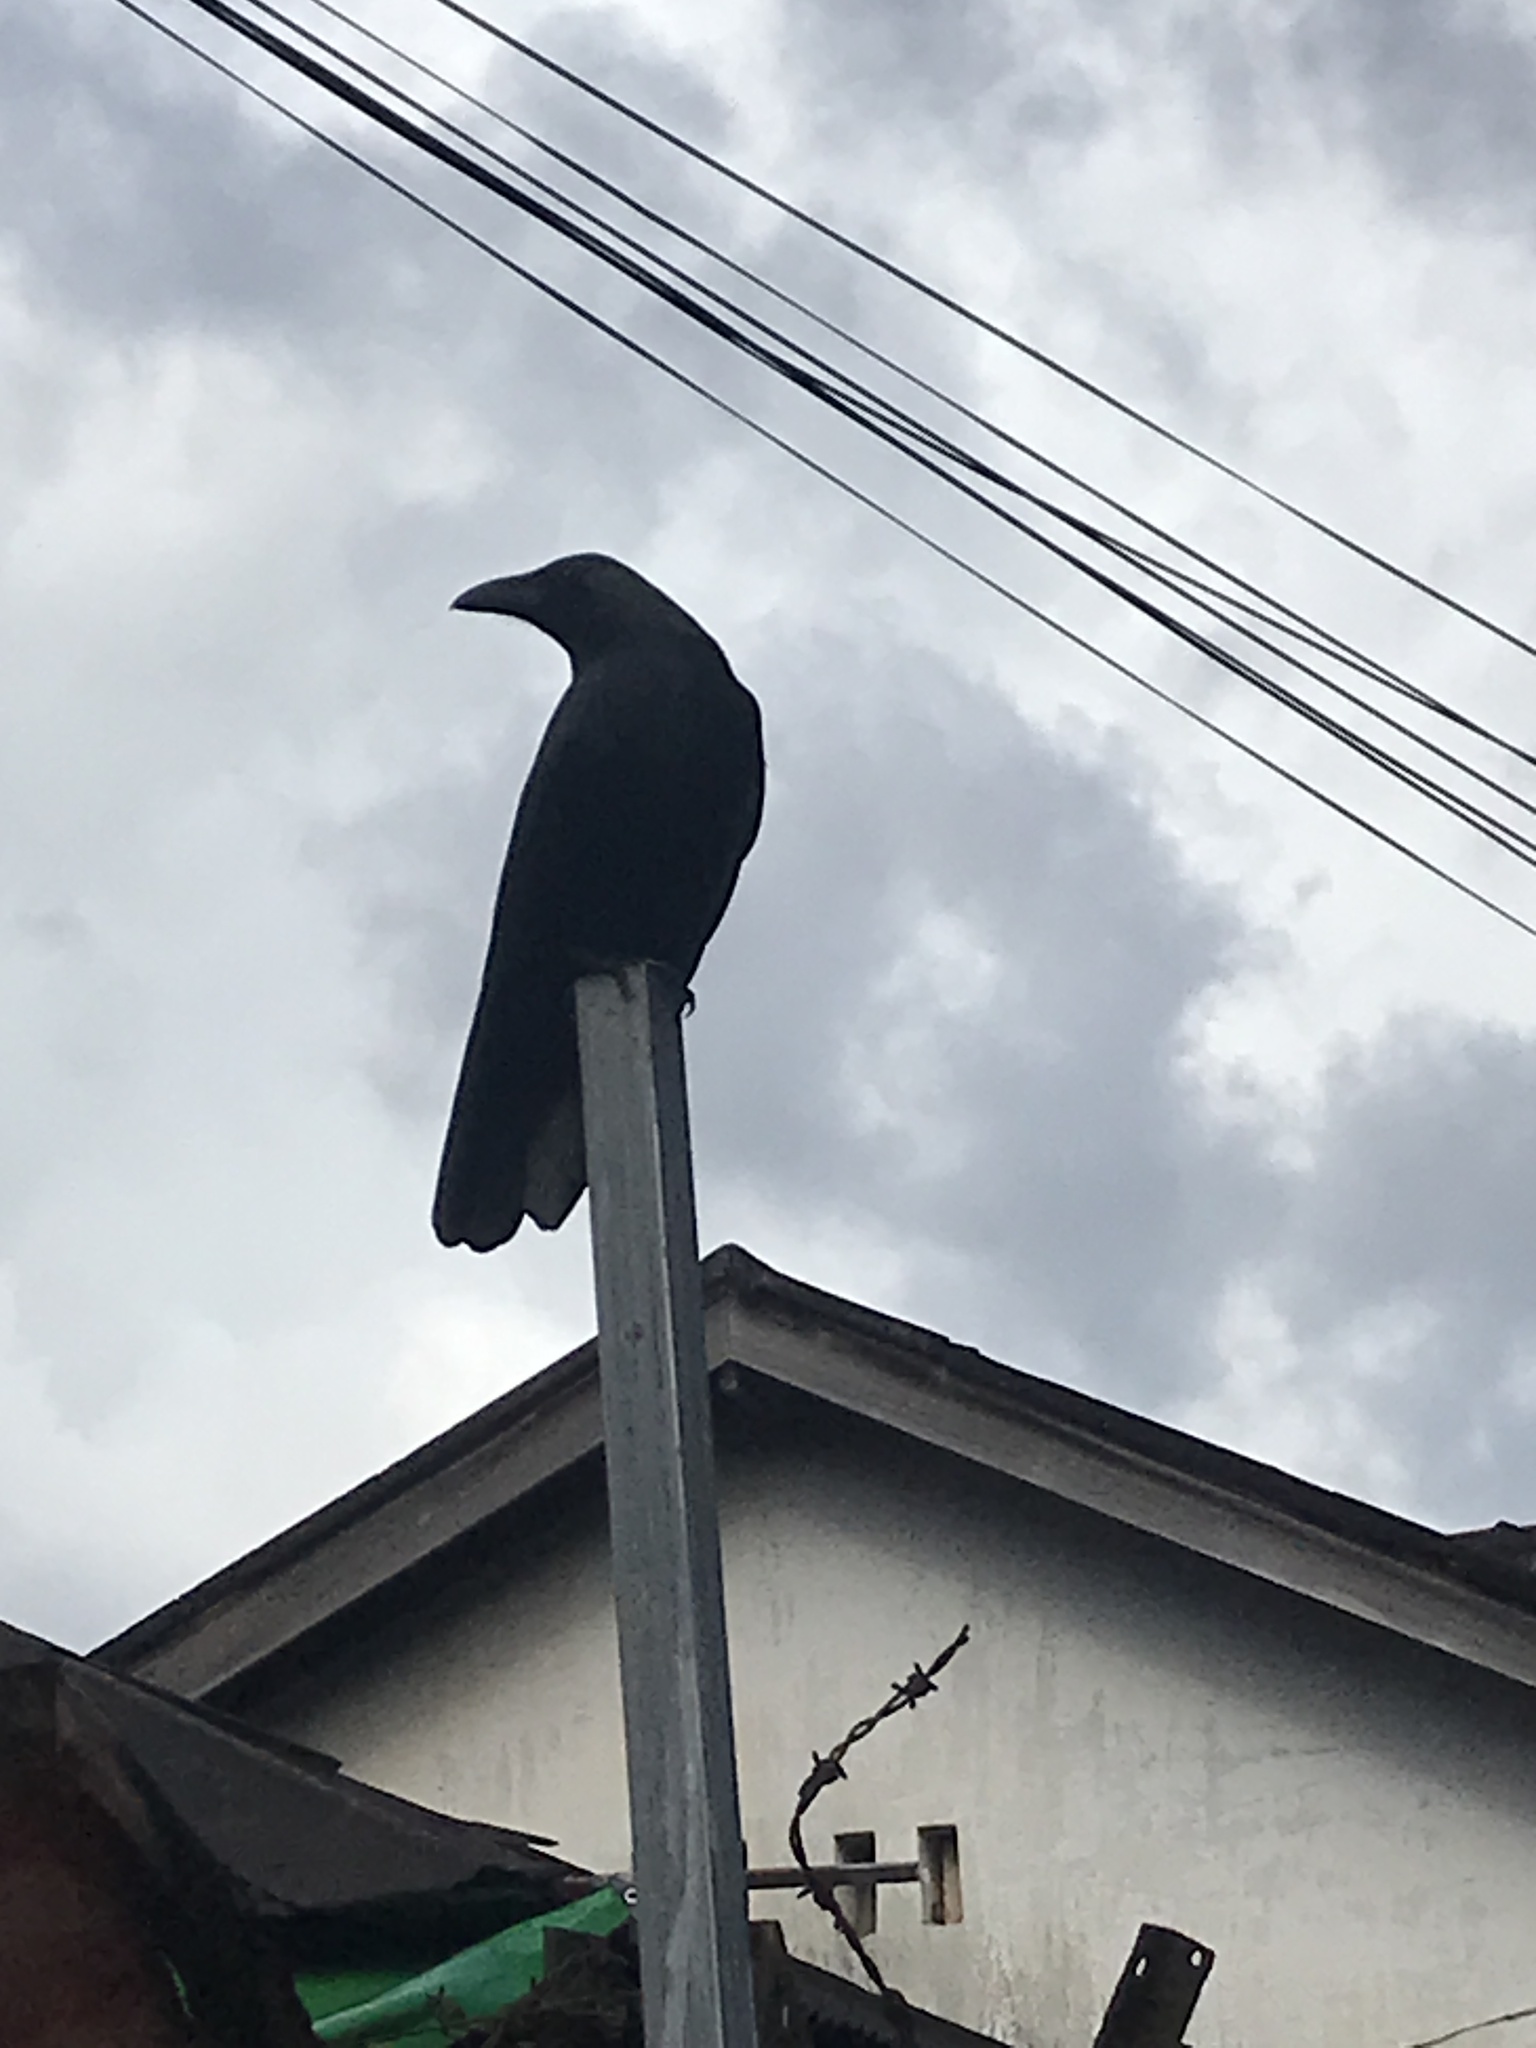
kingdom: Animalia
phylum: Chordata
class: Aves
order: Passeriformes
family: Corvidae
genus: Corvus
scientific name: Corvus splendens
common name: House crow
